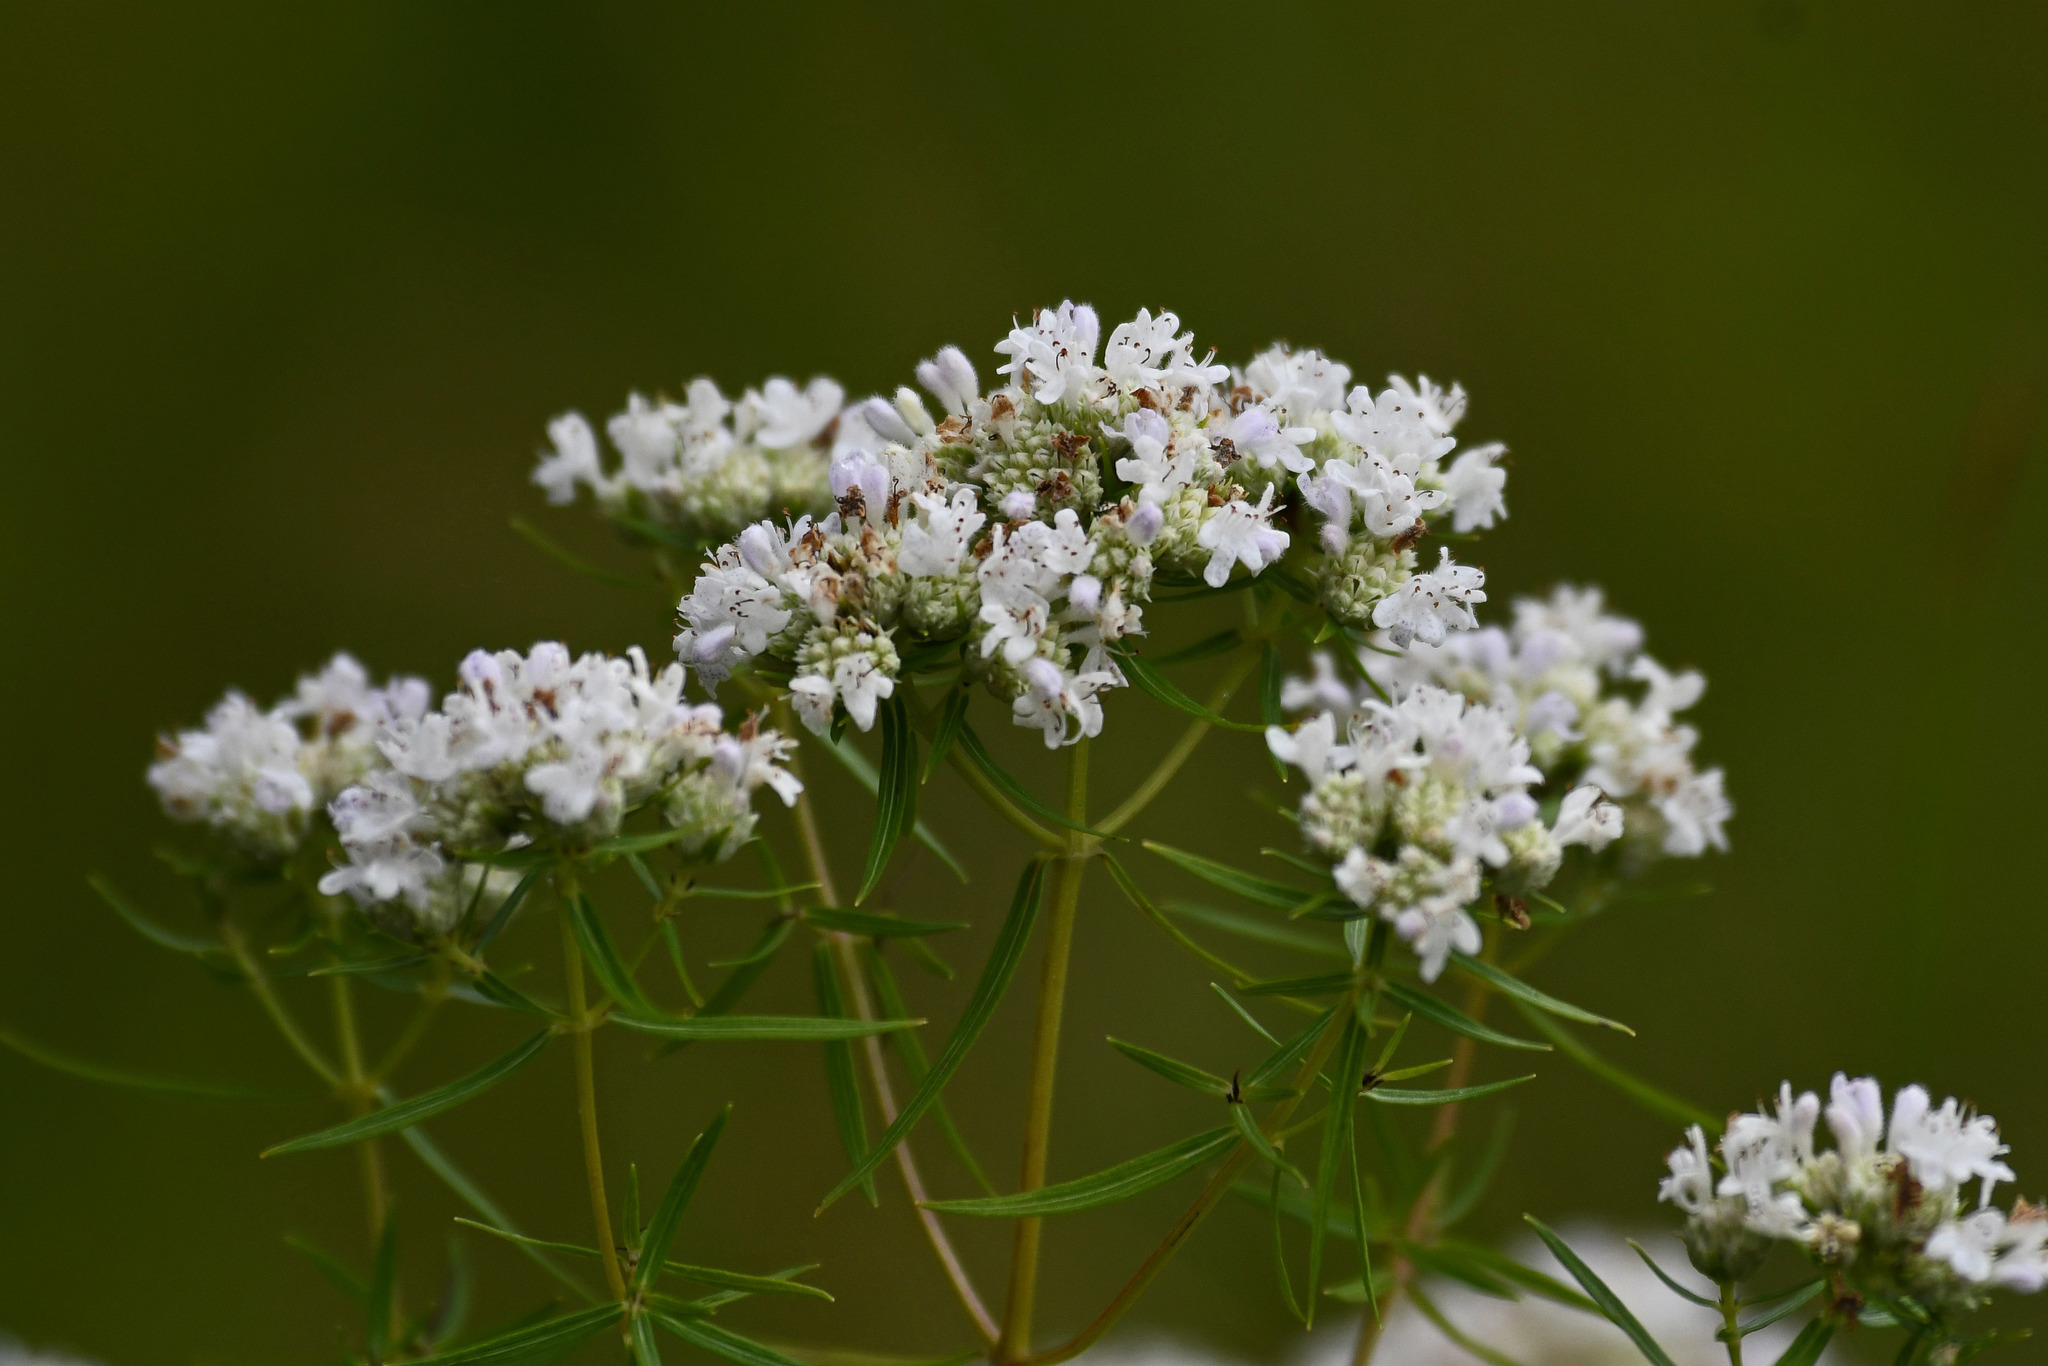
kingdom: Plantae
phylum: Tracheophyta
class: Magnoliopsida
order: Lamiales
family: Lamiaceae
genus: Pycnanthemum
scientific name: Pycnanthemum tenuifolium
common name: Narrow-leaf mountain-mint
